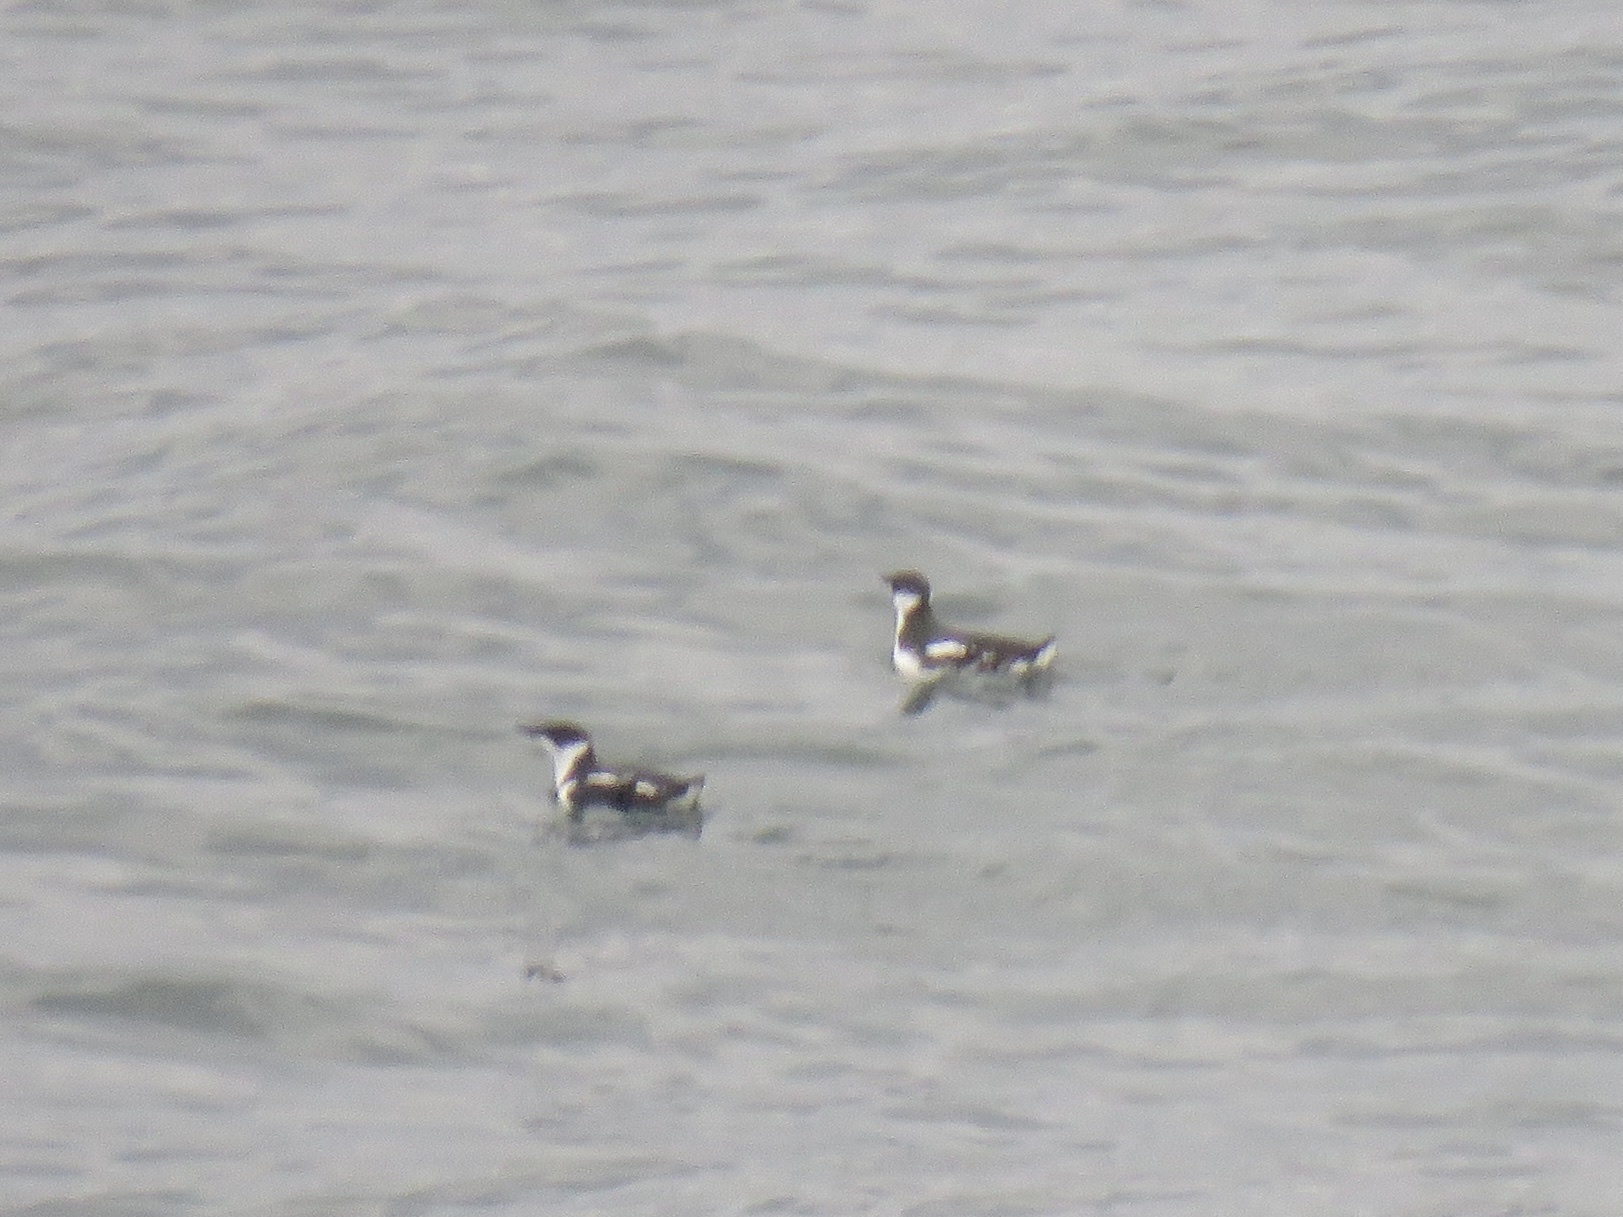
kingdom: Animalia
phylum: Chordata
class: Aves
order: Charadriiformes
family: Alcidae
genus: Brachyramphus
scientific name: Brachyramphus marmoratus
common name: Marbled murrelet
